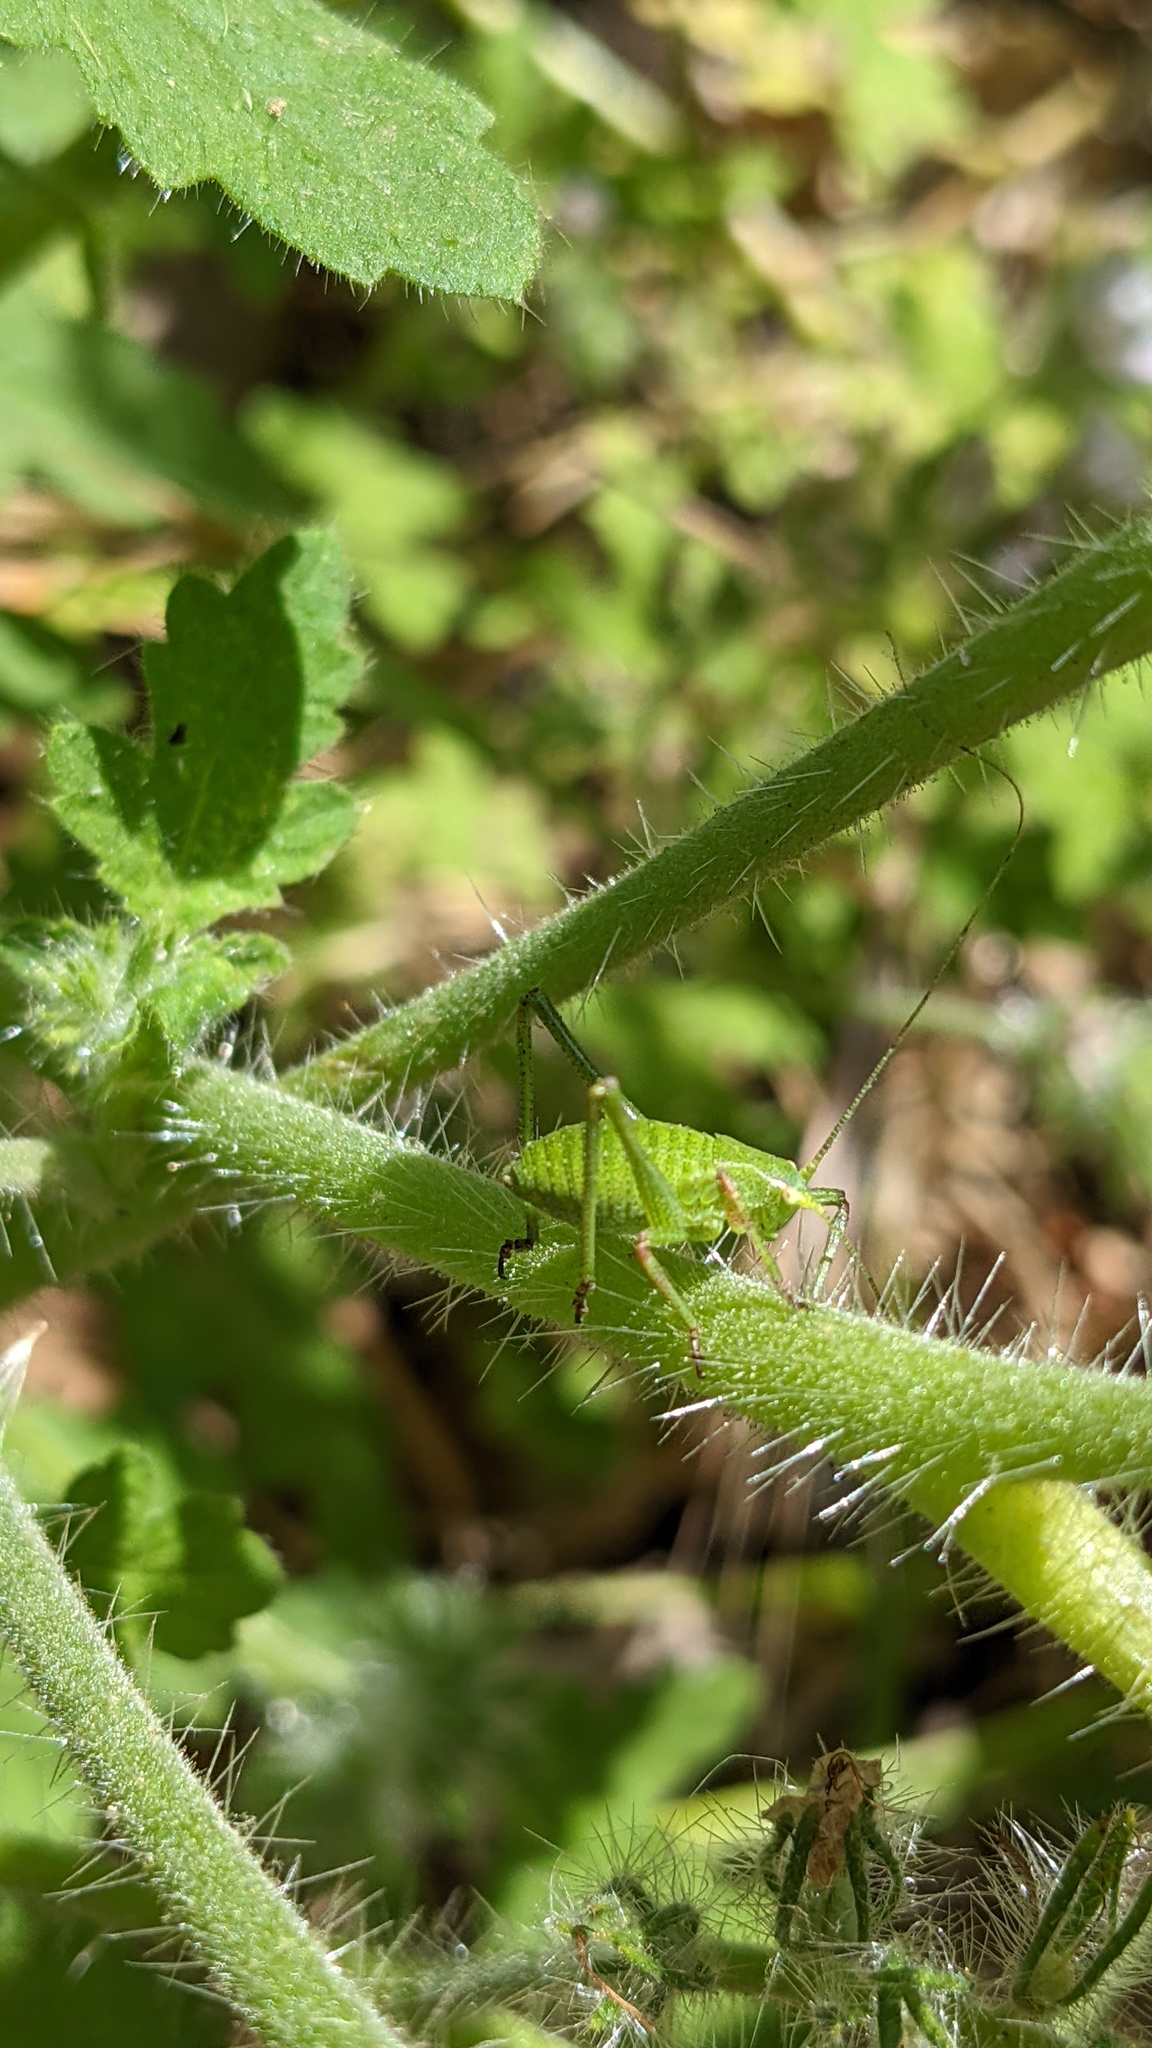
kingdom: Animalia
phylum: Arthropoda
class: Insecta
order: Orthoptera
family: Tettigoniidae
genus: Platylyra
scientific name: Platylyra californica
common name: Chaparral false katydid
